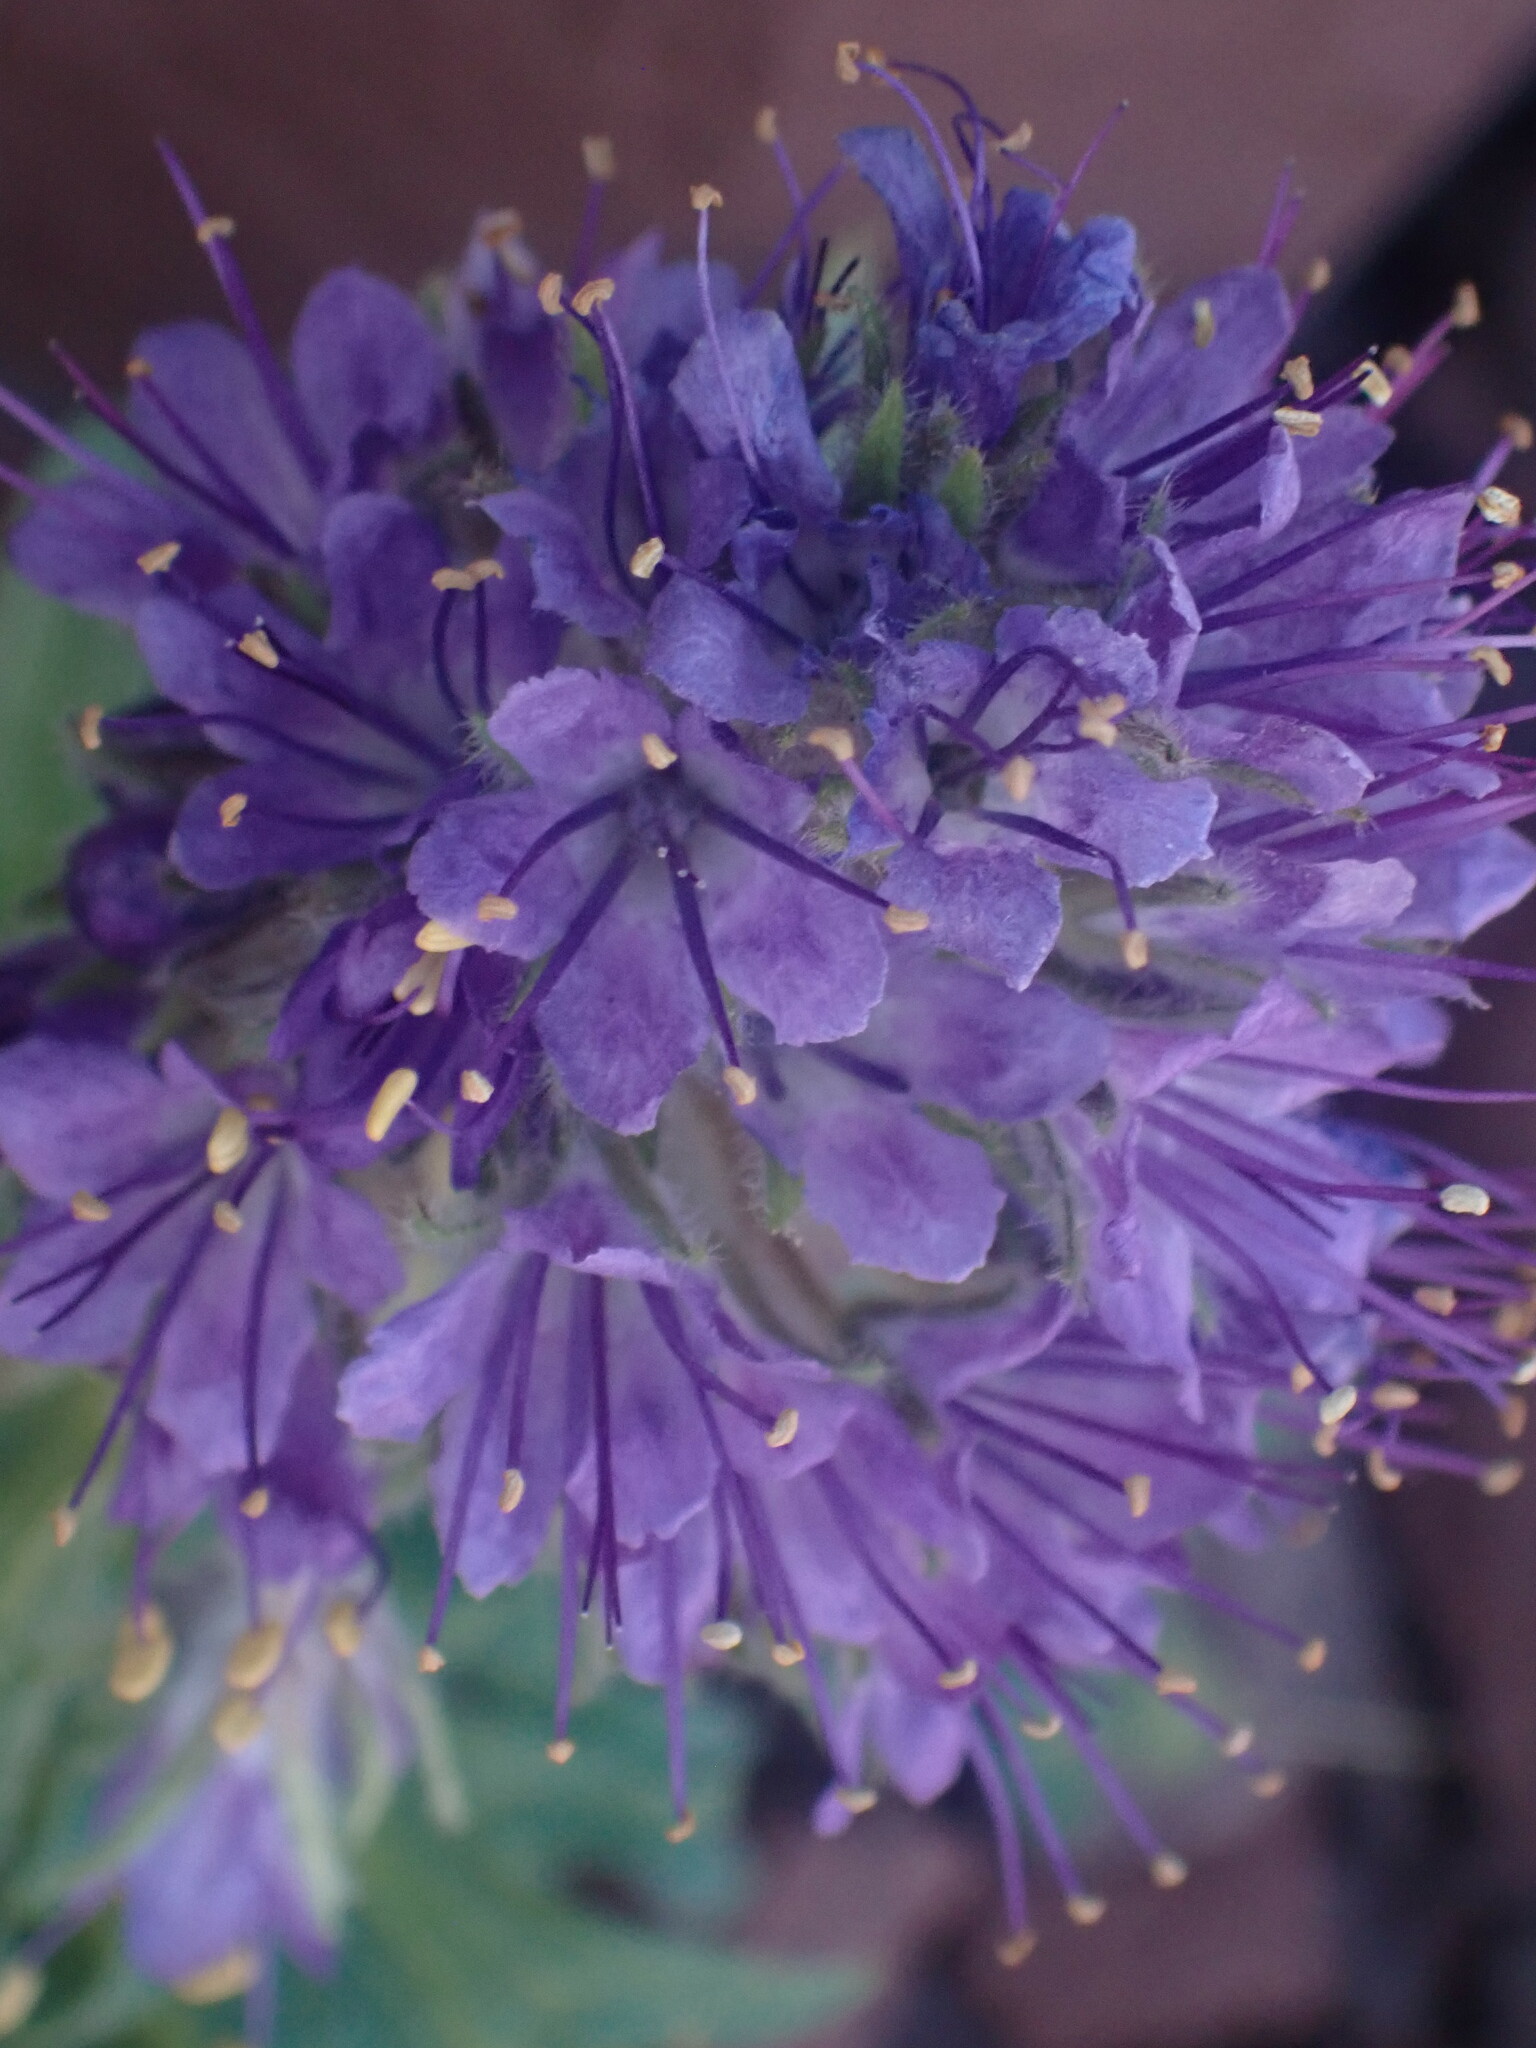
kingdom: Plantae
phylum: Tracheophyta
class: Magnoliopsida
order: Boraginales
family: Hydrophyllaceae
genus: Phacelia
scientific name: Phacelia lyallii
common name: Lyall's phacelia
